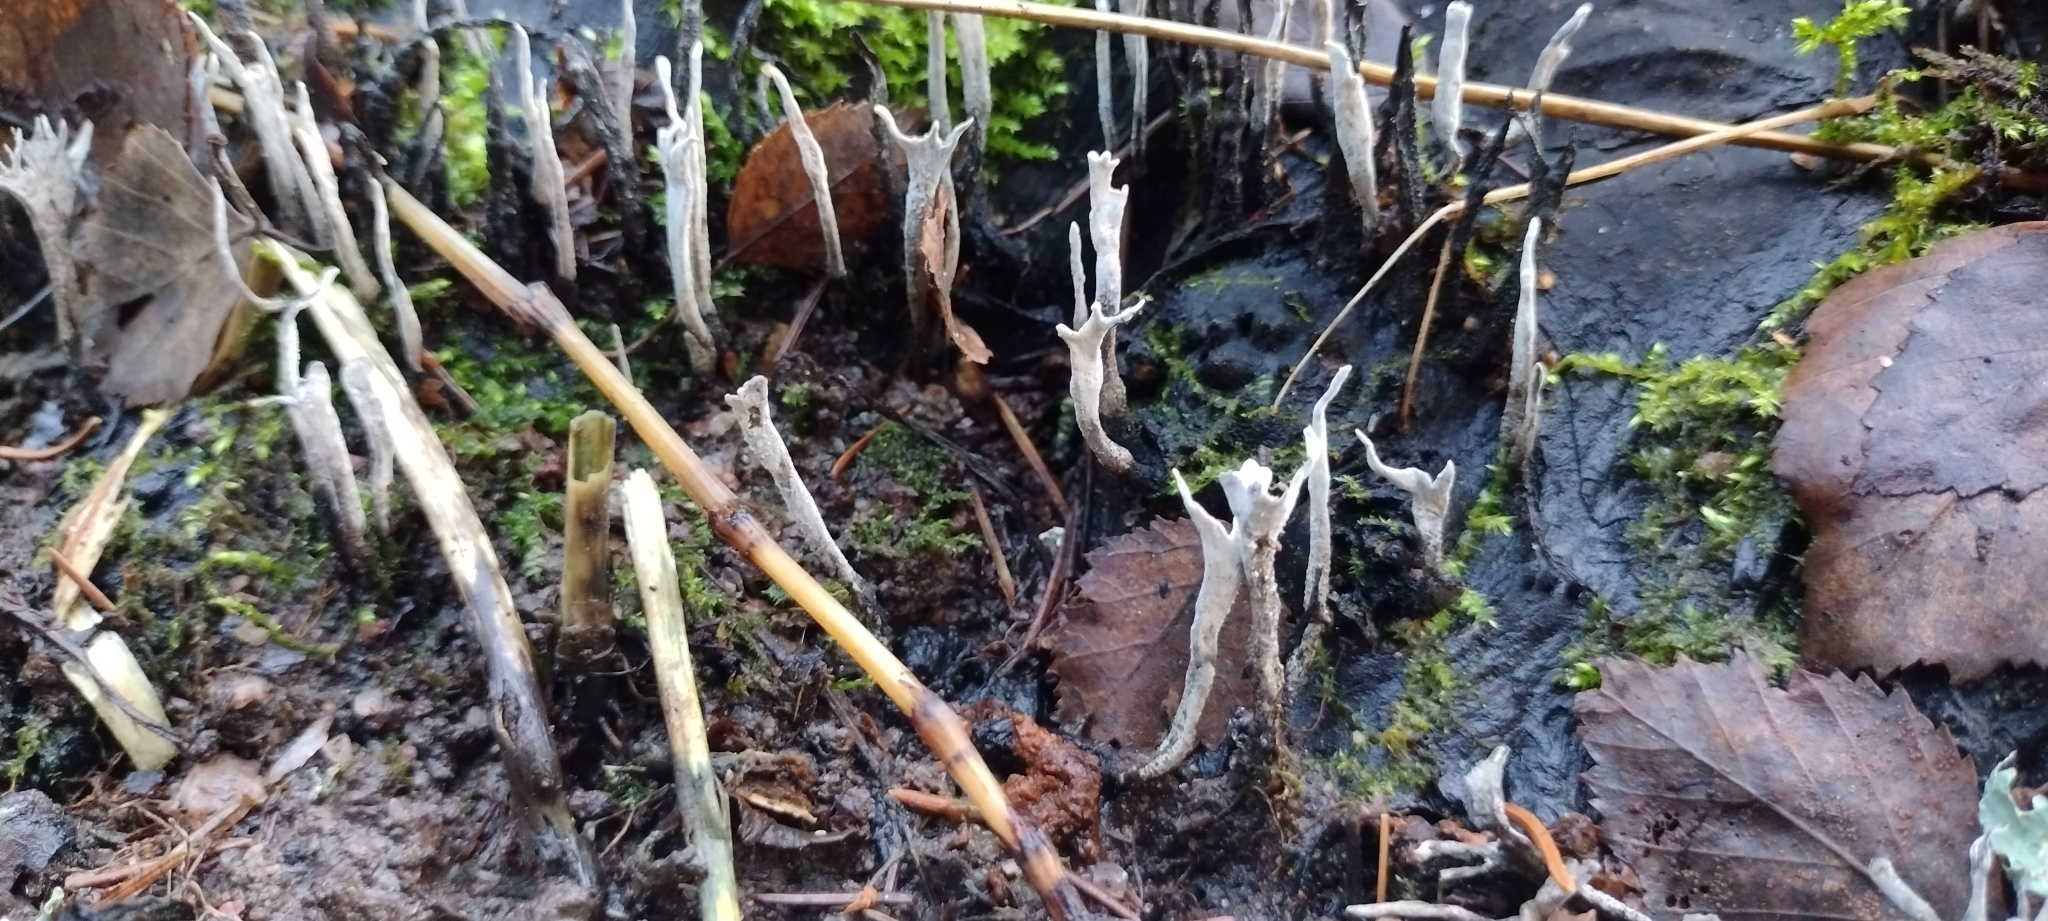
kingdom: Fungi
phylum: Ascomycota
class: Sordariomycetes
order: Xylariales
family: Xylariaceae
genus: Xylaria
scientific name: Xylaria hypoxylon
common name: Candle-snuff fungus
